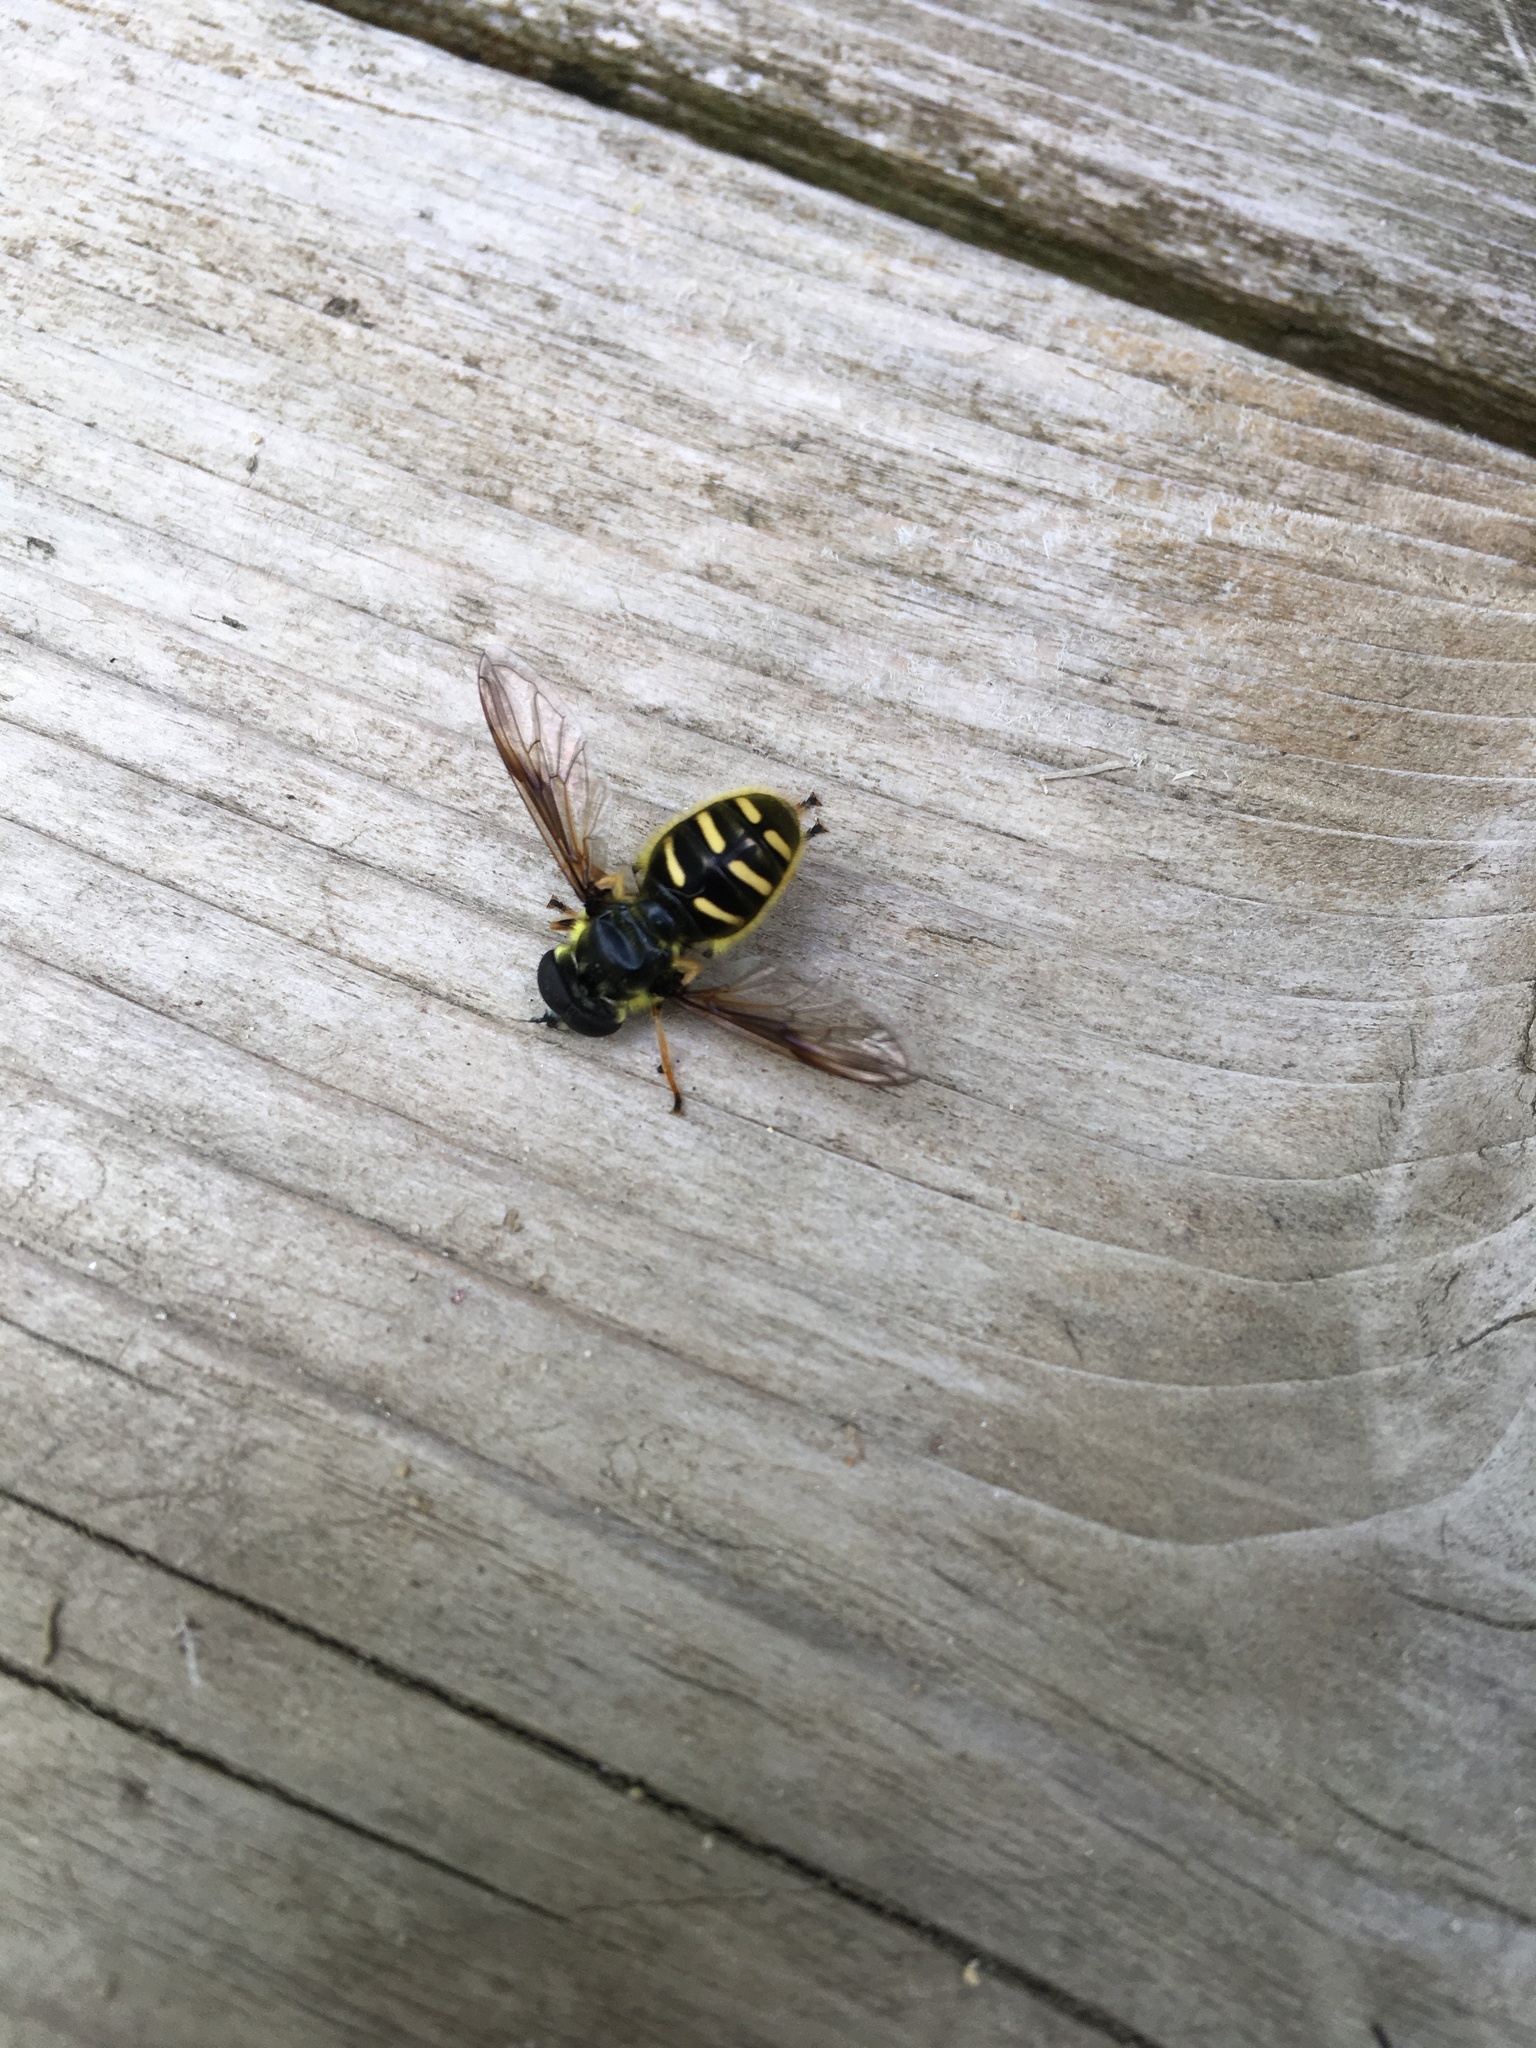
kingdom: Animalia
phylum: Arthropoda
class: Insecta
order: Diptera
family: Syrphidae
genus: Sericomyia
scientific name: Sericomyia chrysotoxoides
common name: Oblique-banded pond fly
